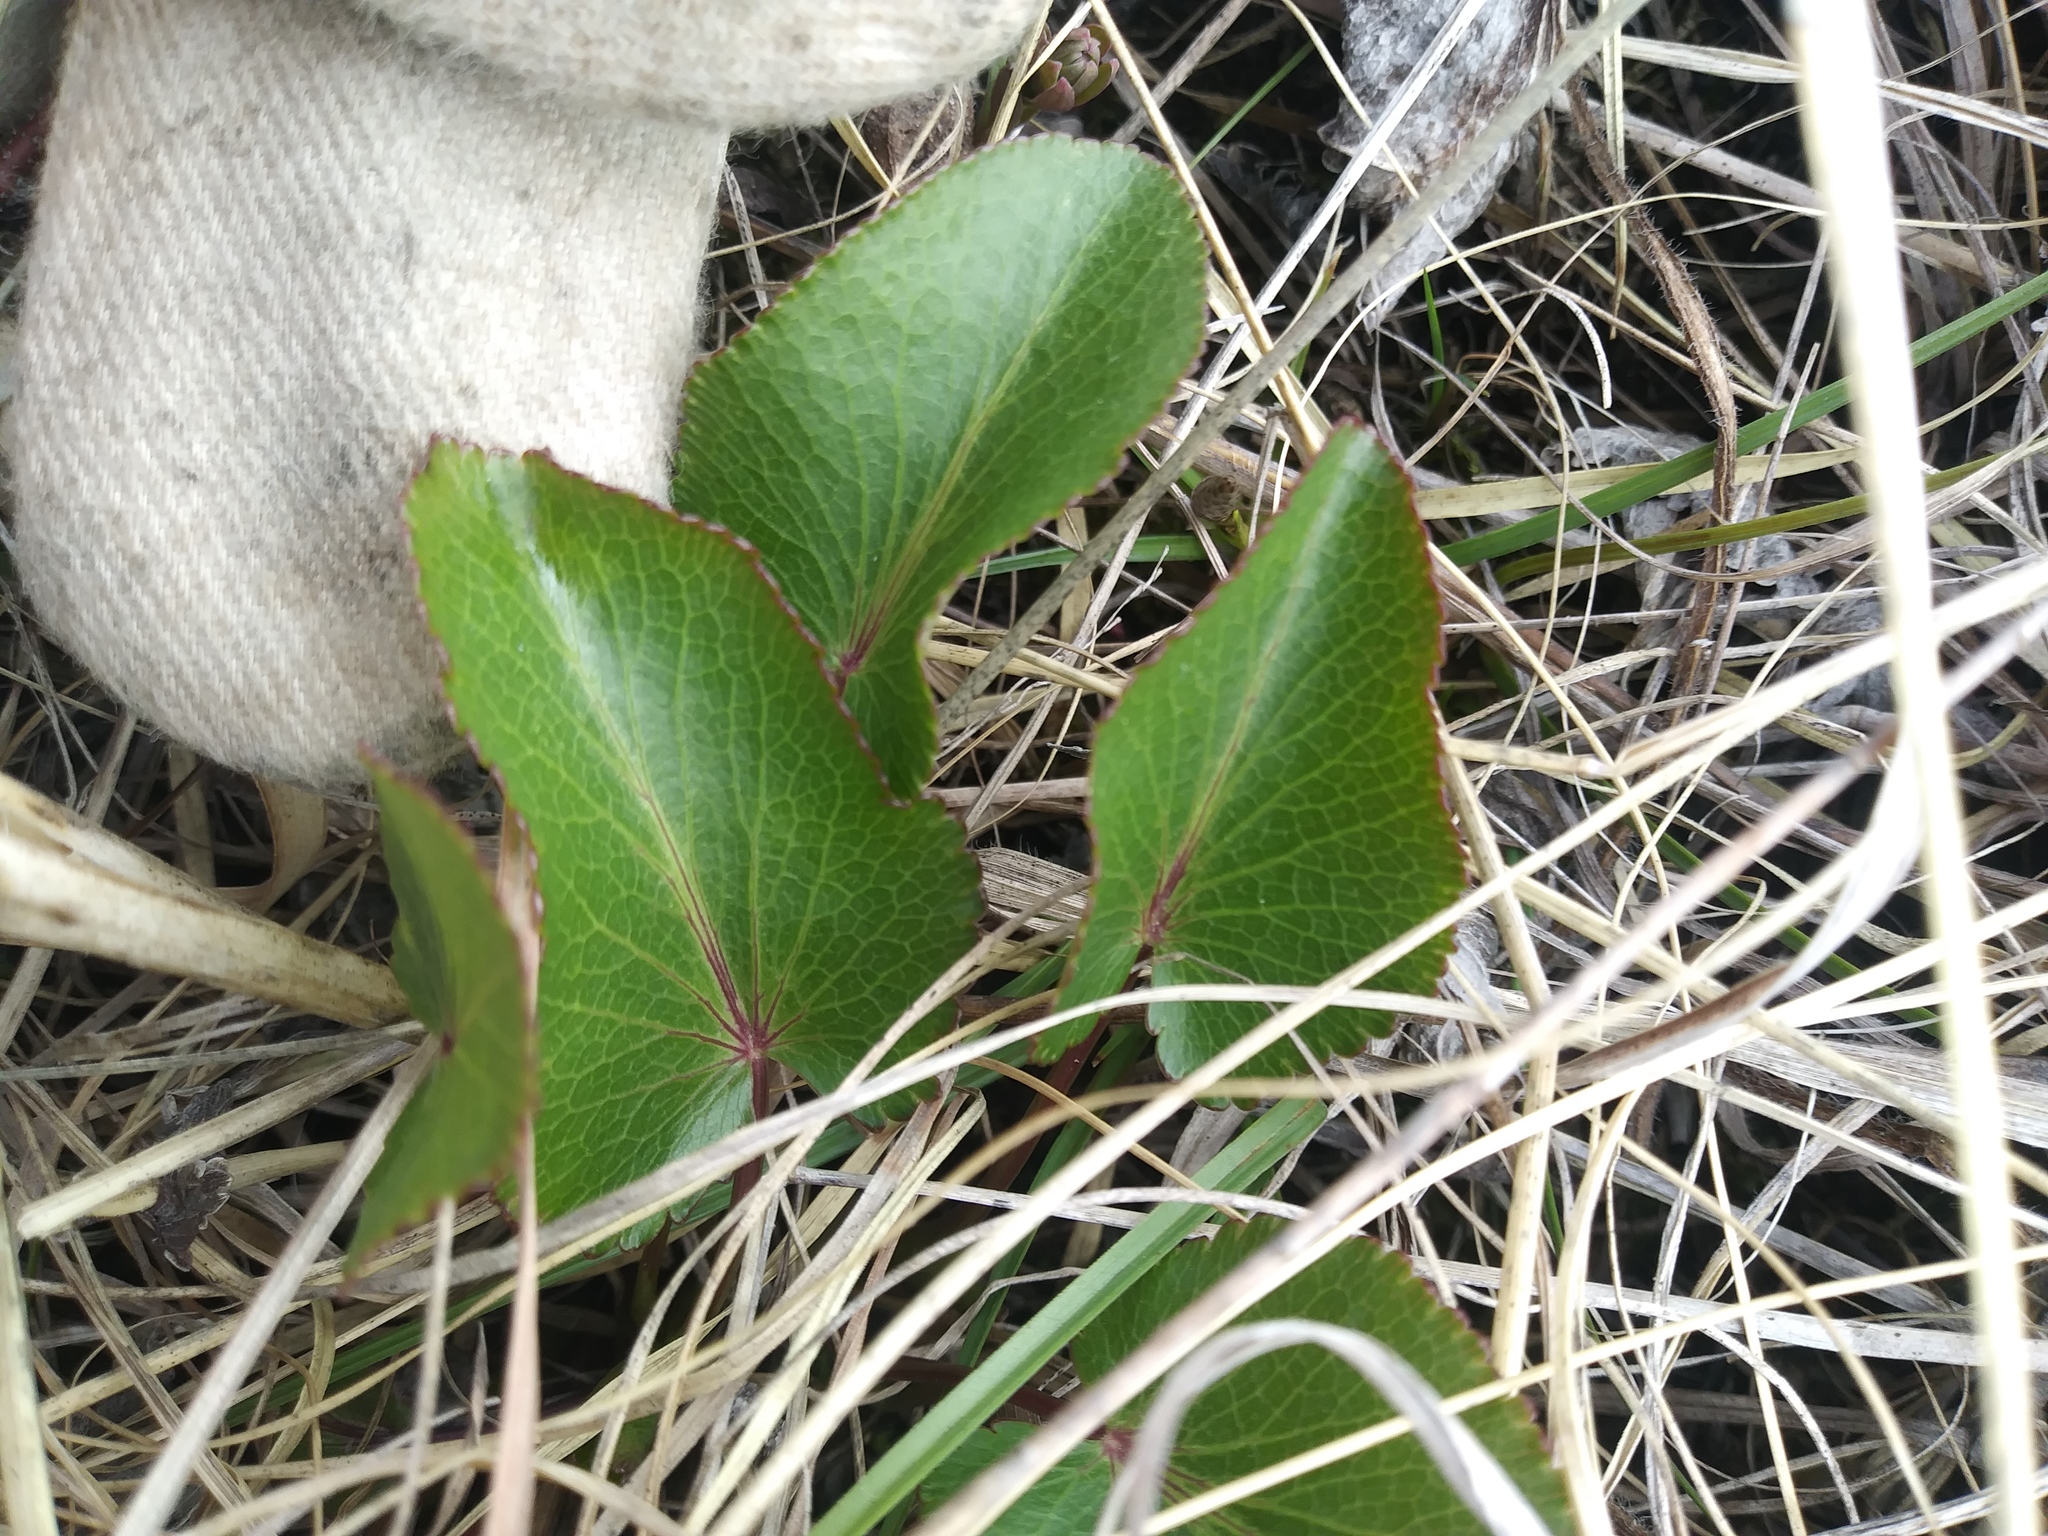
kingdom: Plantae
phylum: Tracheophyta
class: Magnoliopsida
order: Apiales
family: Apiaceae
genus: Zizia
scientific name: Zizia aptera
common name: Heart-leaved alexanders
